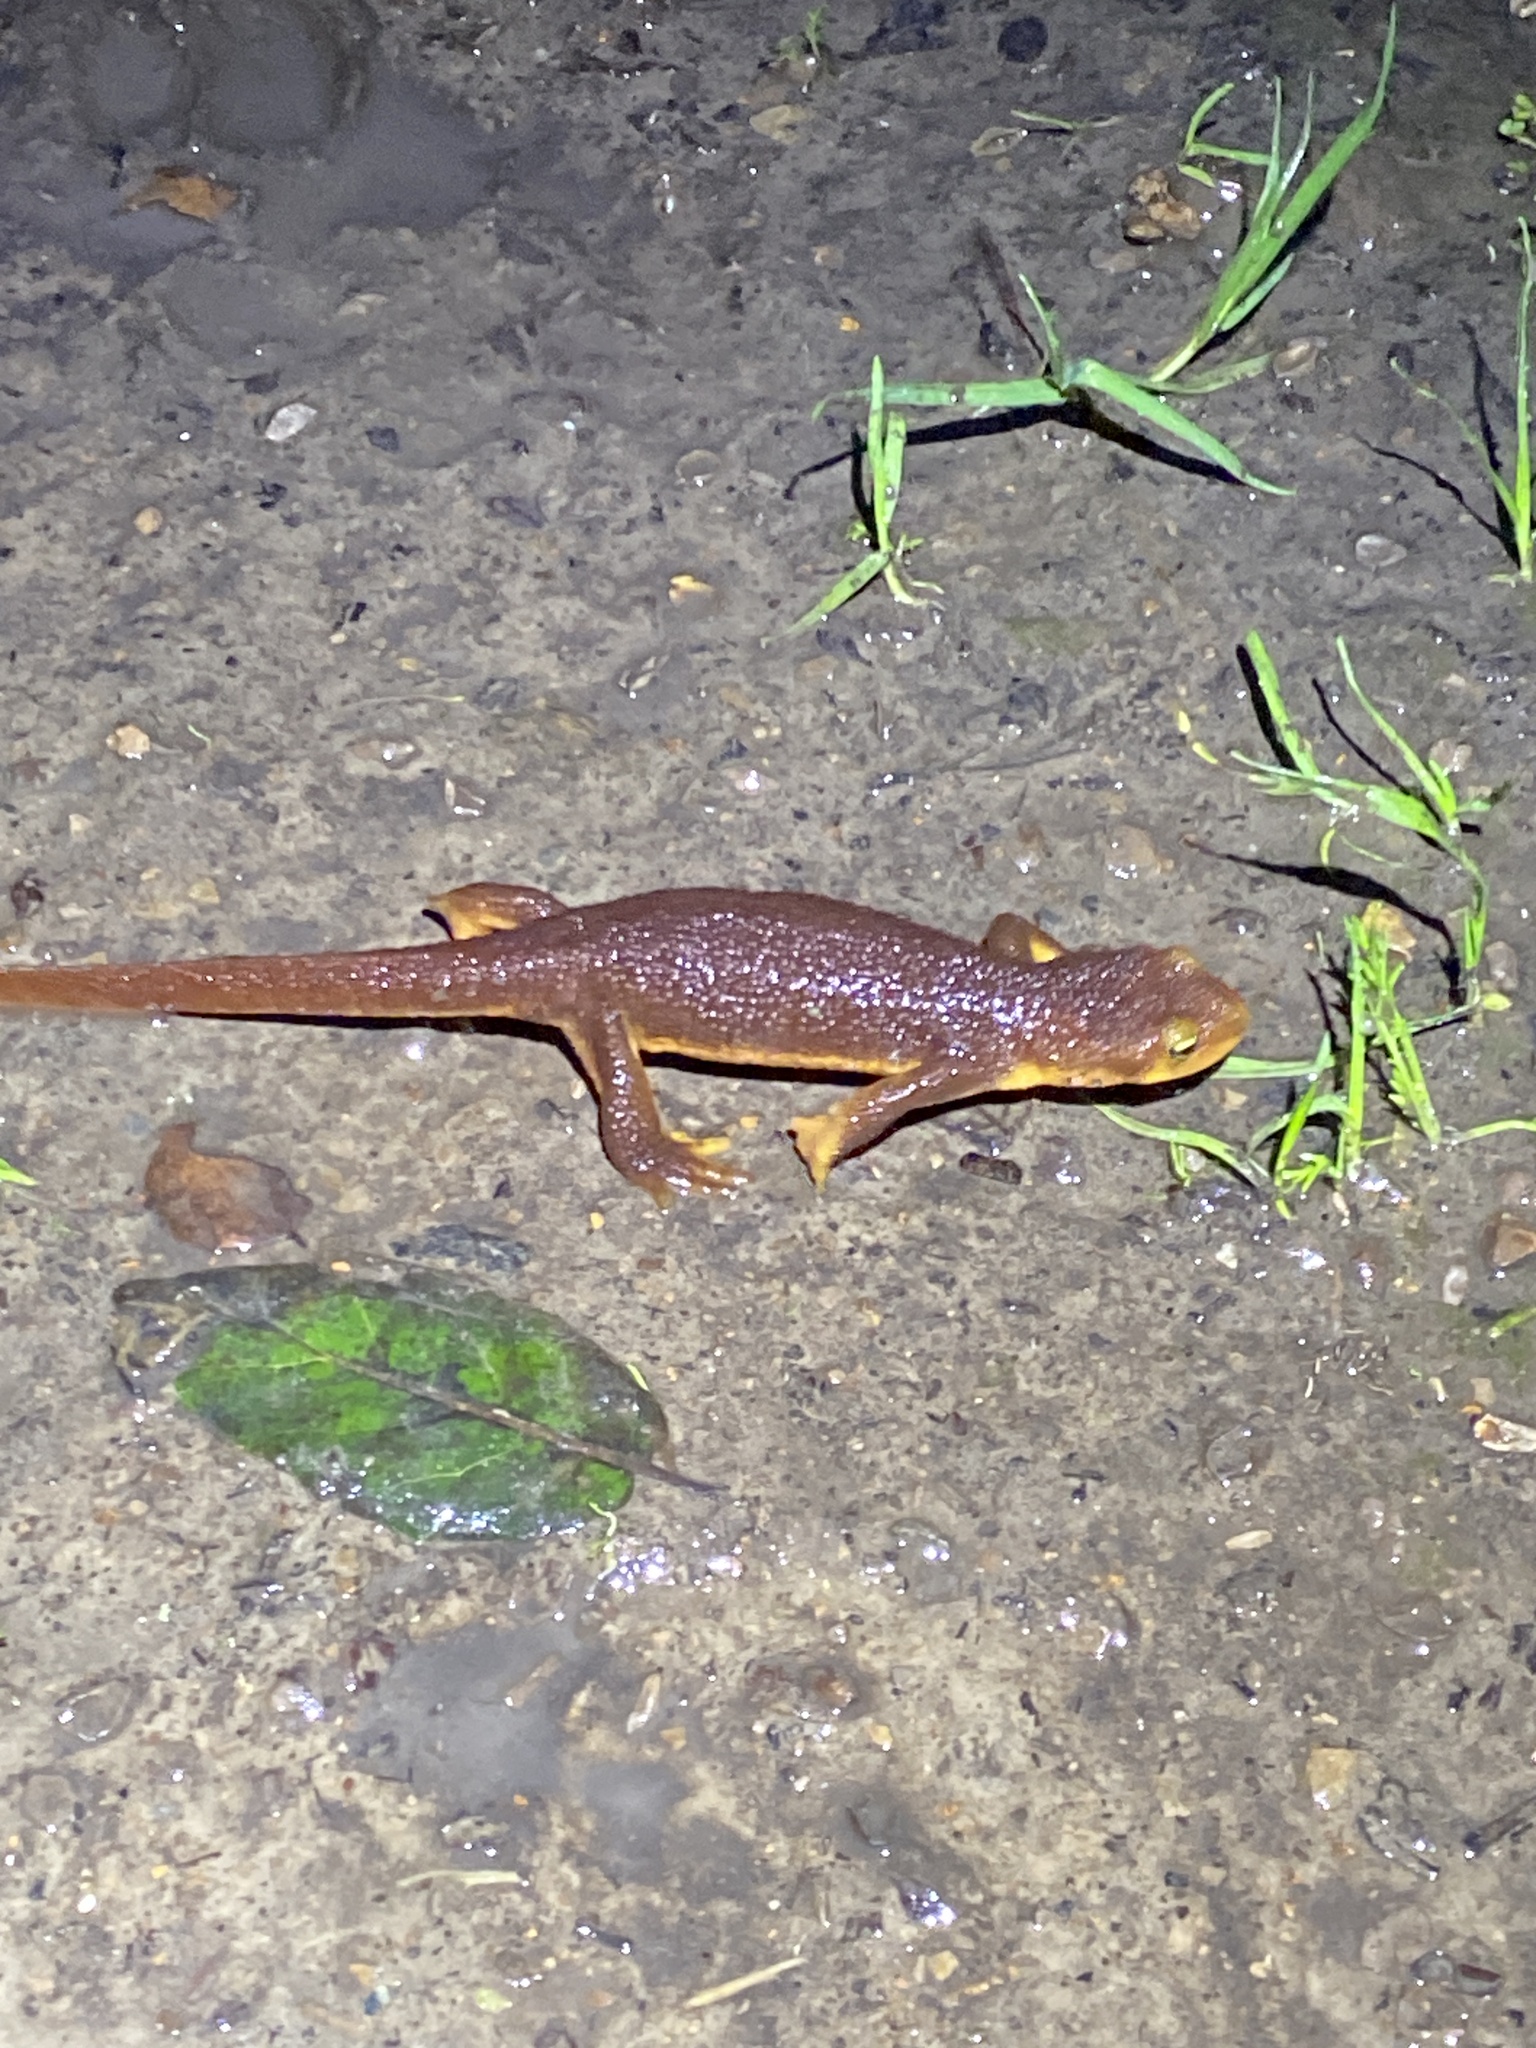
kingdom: Animalia
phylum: Chordata
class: Amphibia
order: Caudata
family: Salamandridae
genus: Taricha
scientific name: Taricha torosa
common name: California newt
